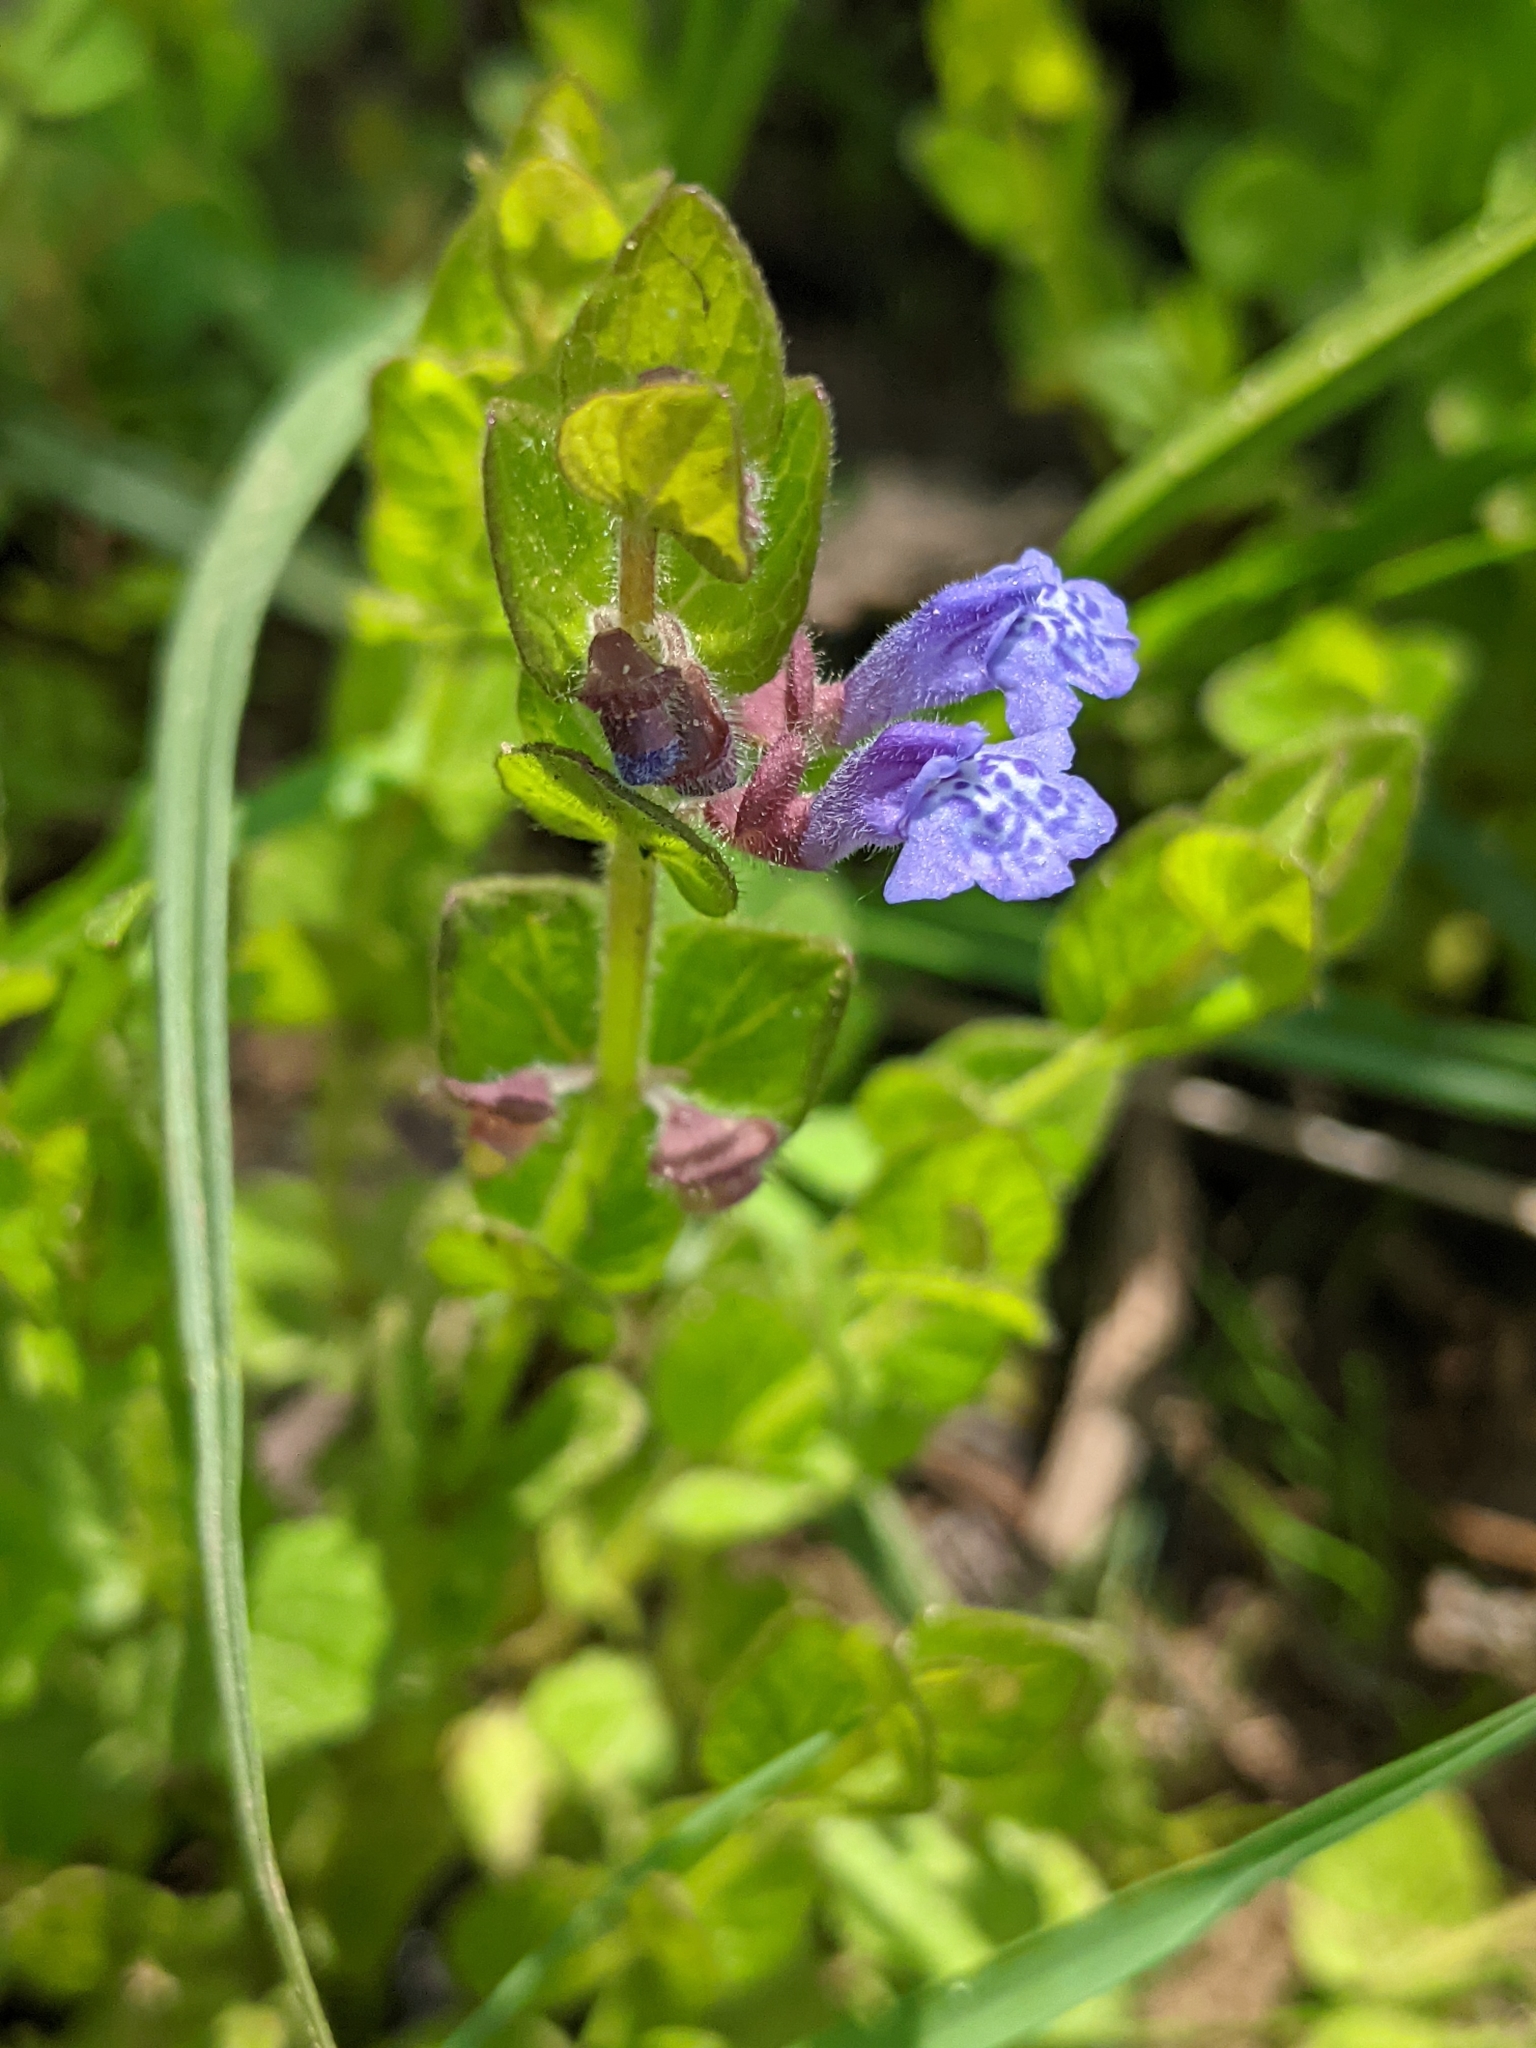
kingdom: Plantae
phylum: Tracheophyta
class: Magnoliopsida
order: Lamiales
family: Lamiaceae
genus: Scutellaria
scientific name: Scutellaria parvula
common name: Little scullcap
